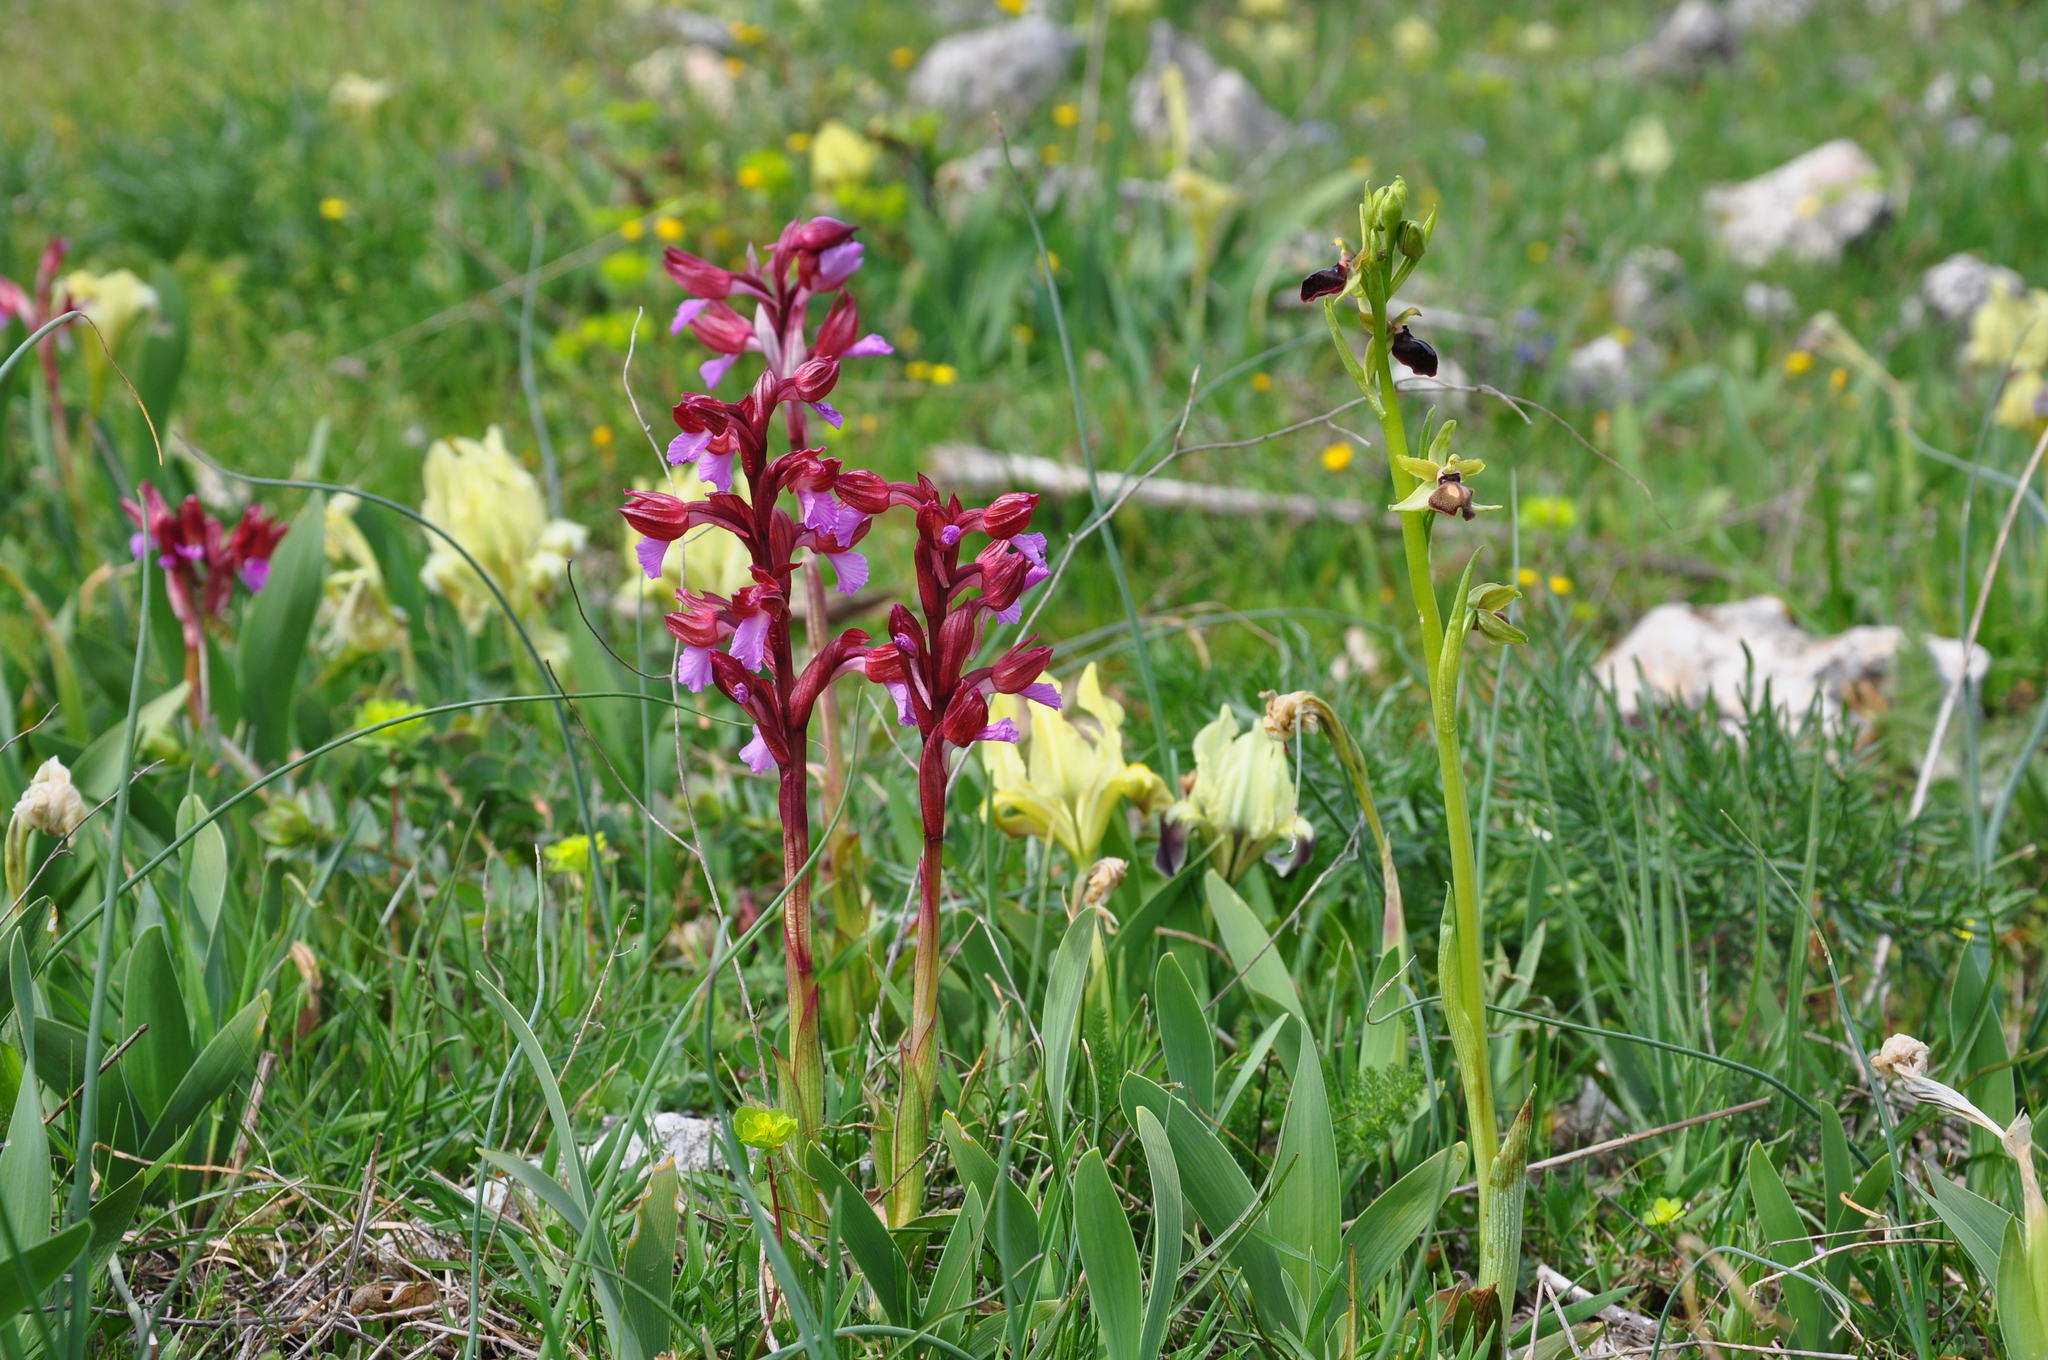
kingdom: Plantae
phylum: Tracheophyta
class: Liliopsida
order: Asparagales
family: Orchidaceae
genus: Anacamptis
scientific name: Anacamptis papilionacea
